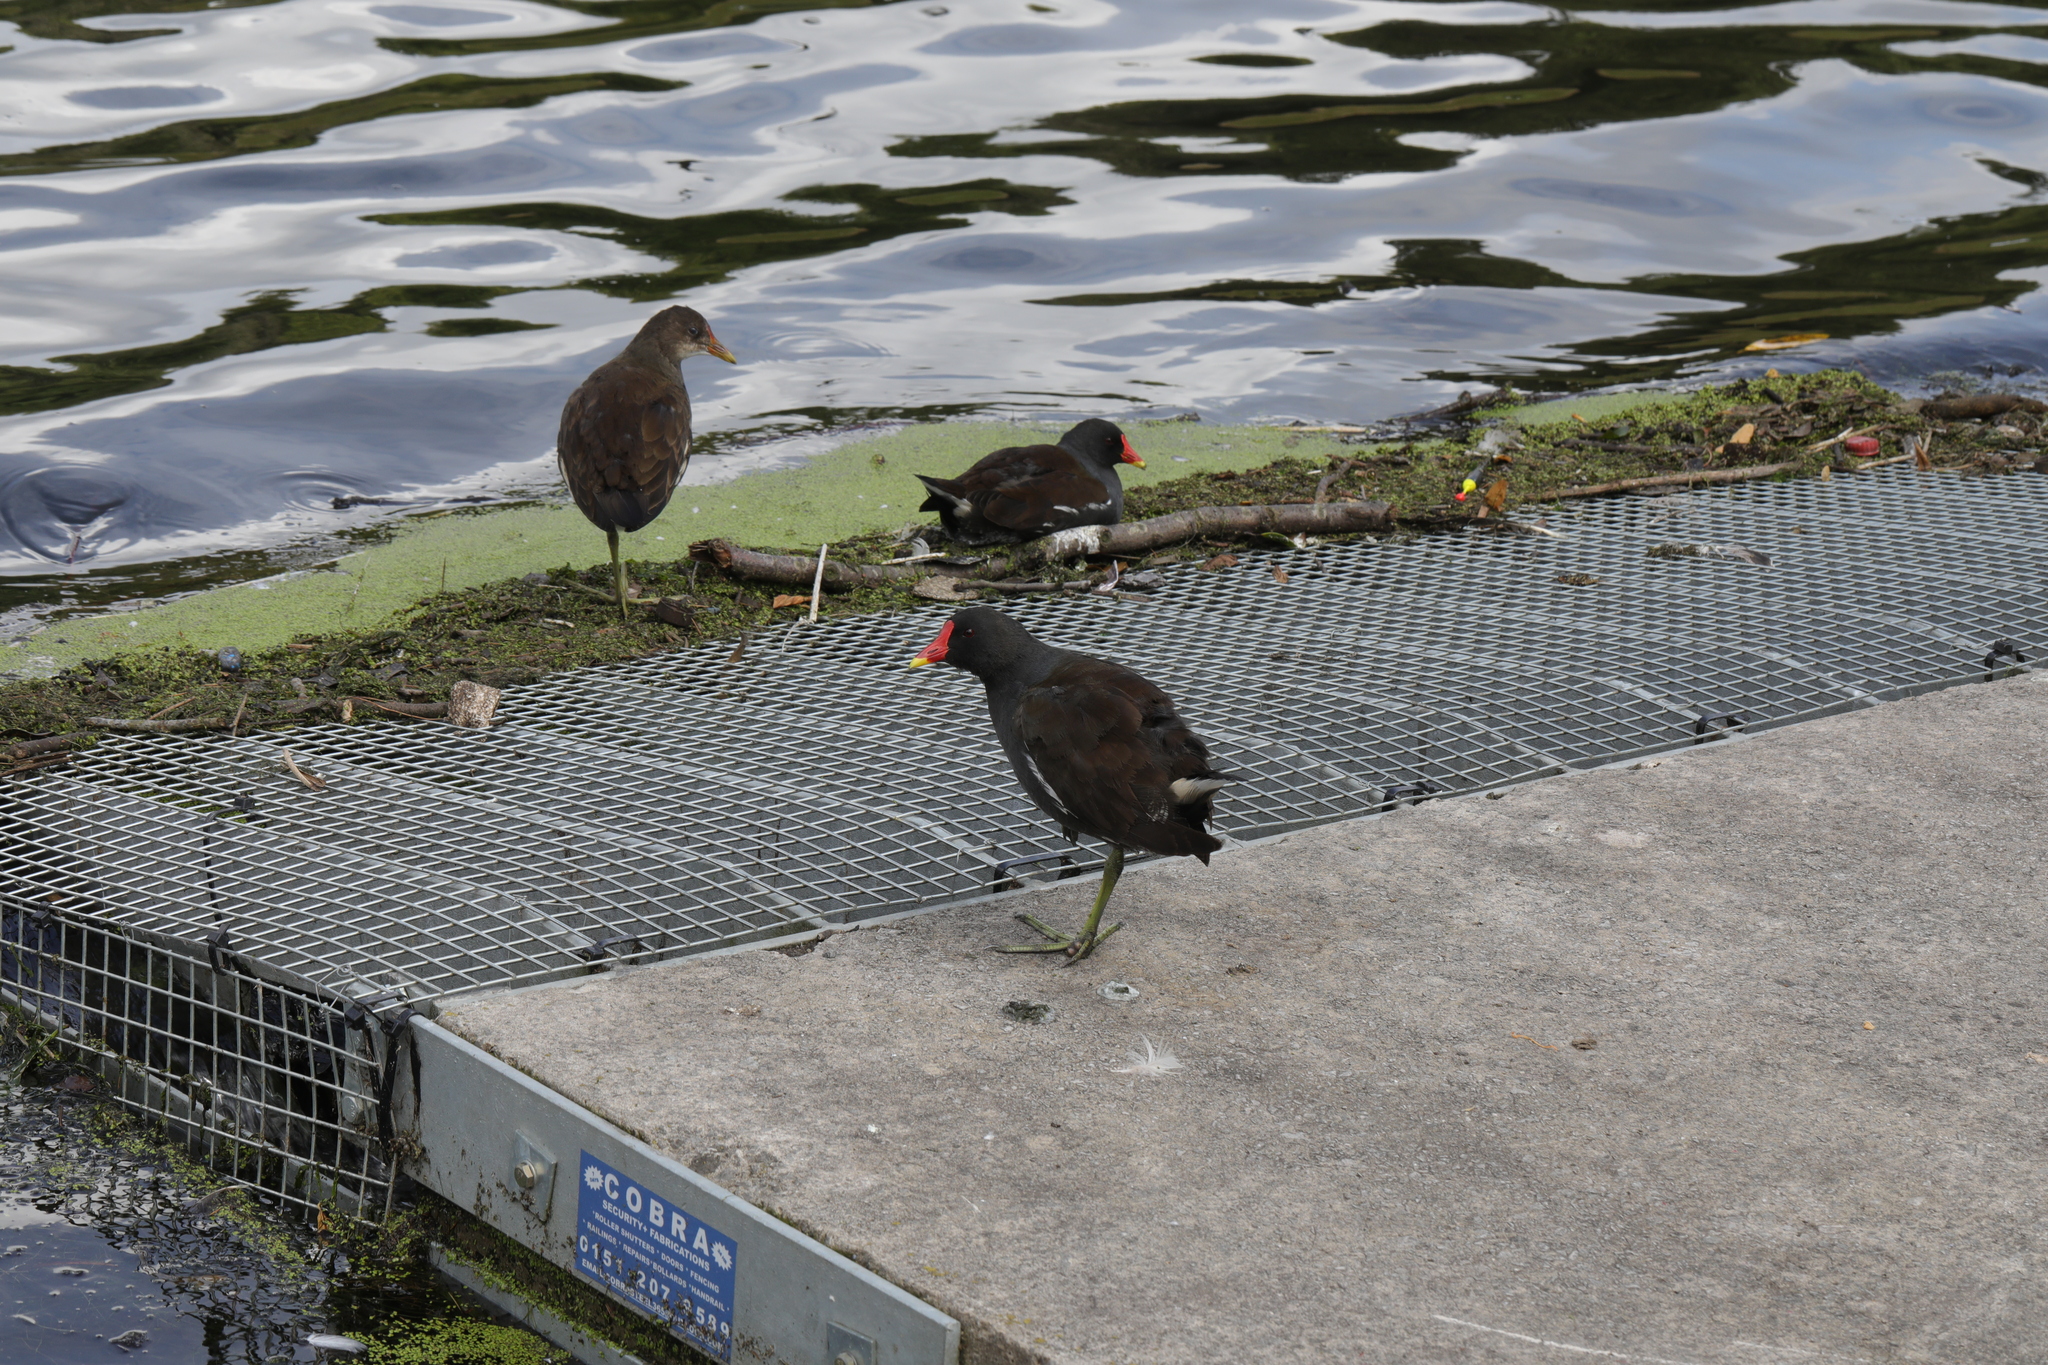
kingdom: Animalia
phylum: Chordata
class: Aves
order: Gruiformes
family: Rallidae
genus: Gallinula
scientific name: Gallinula chloropus
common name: Common moorhen
